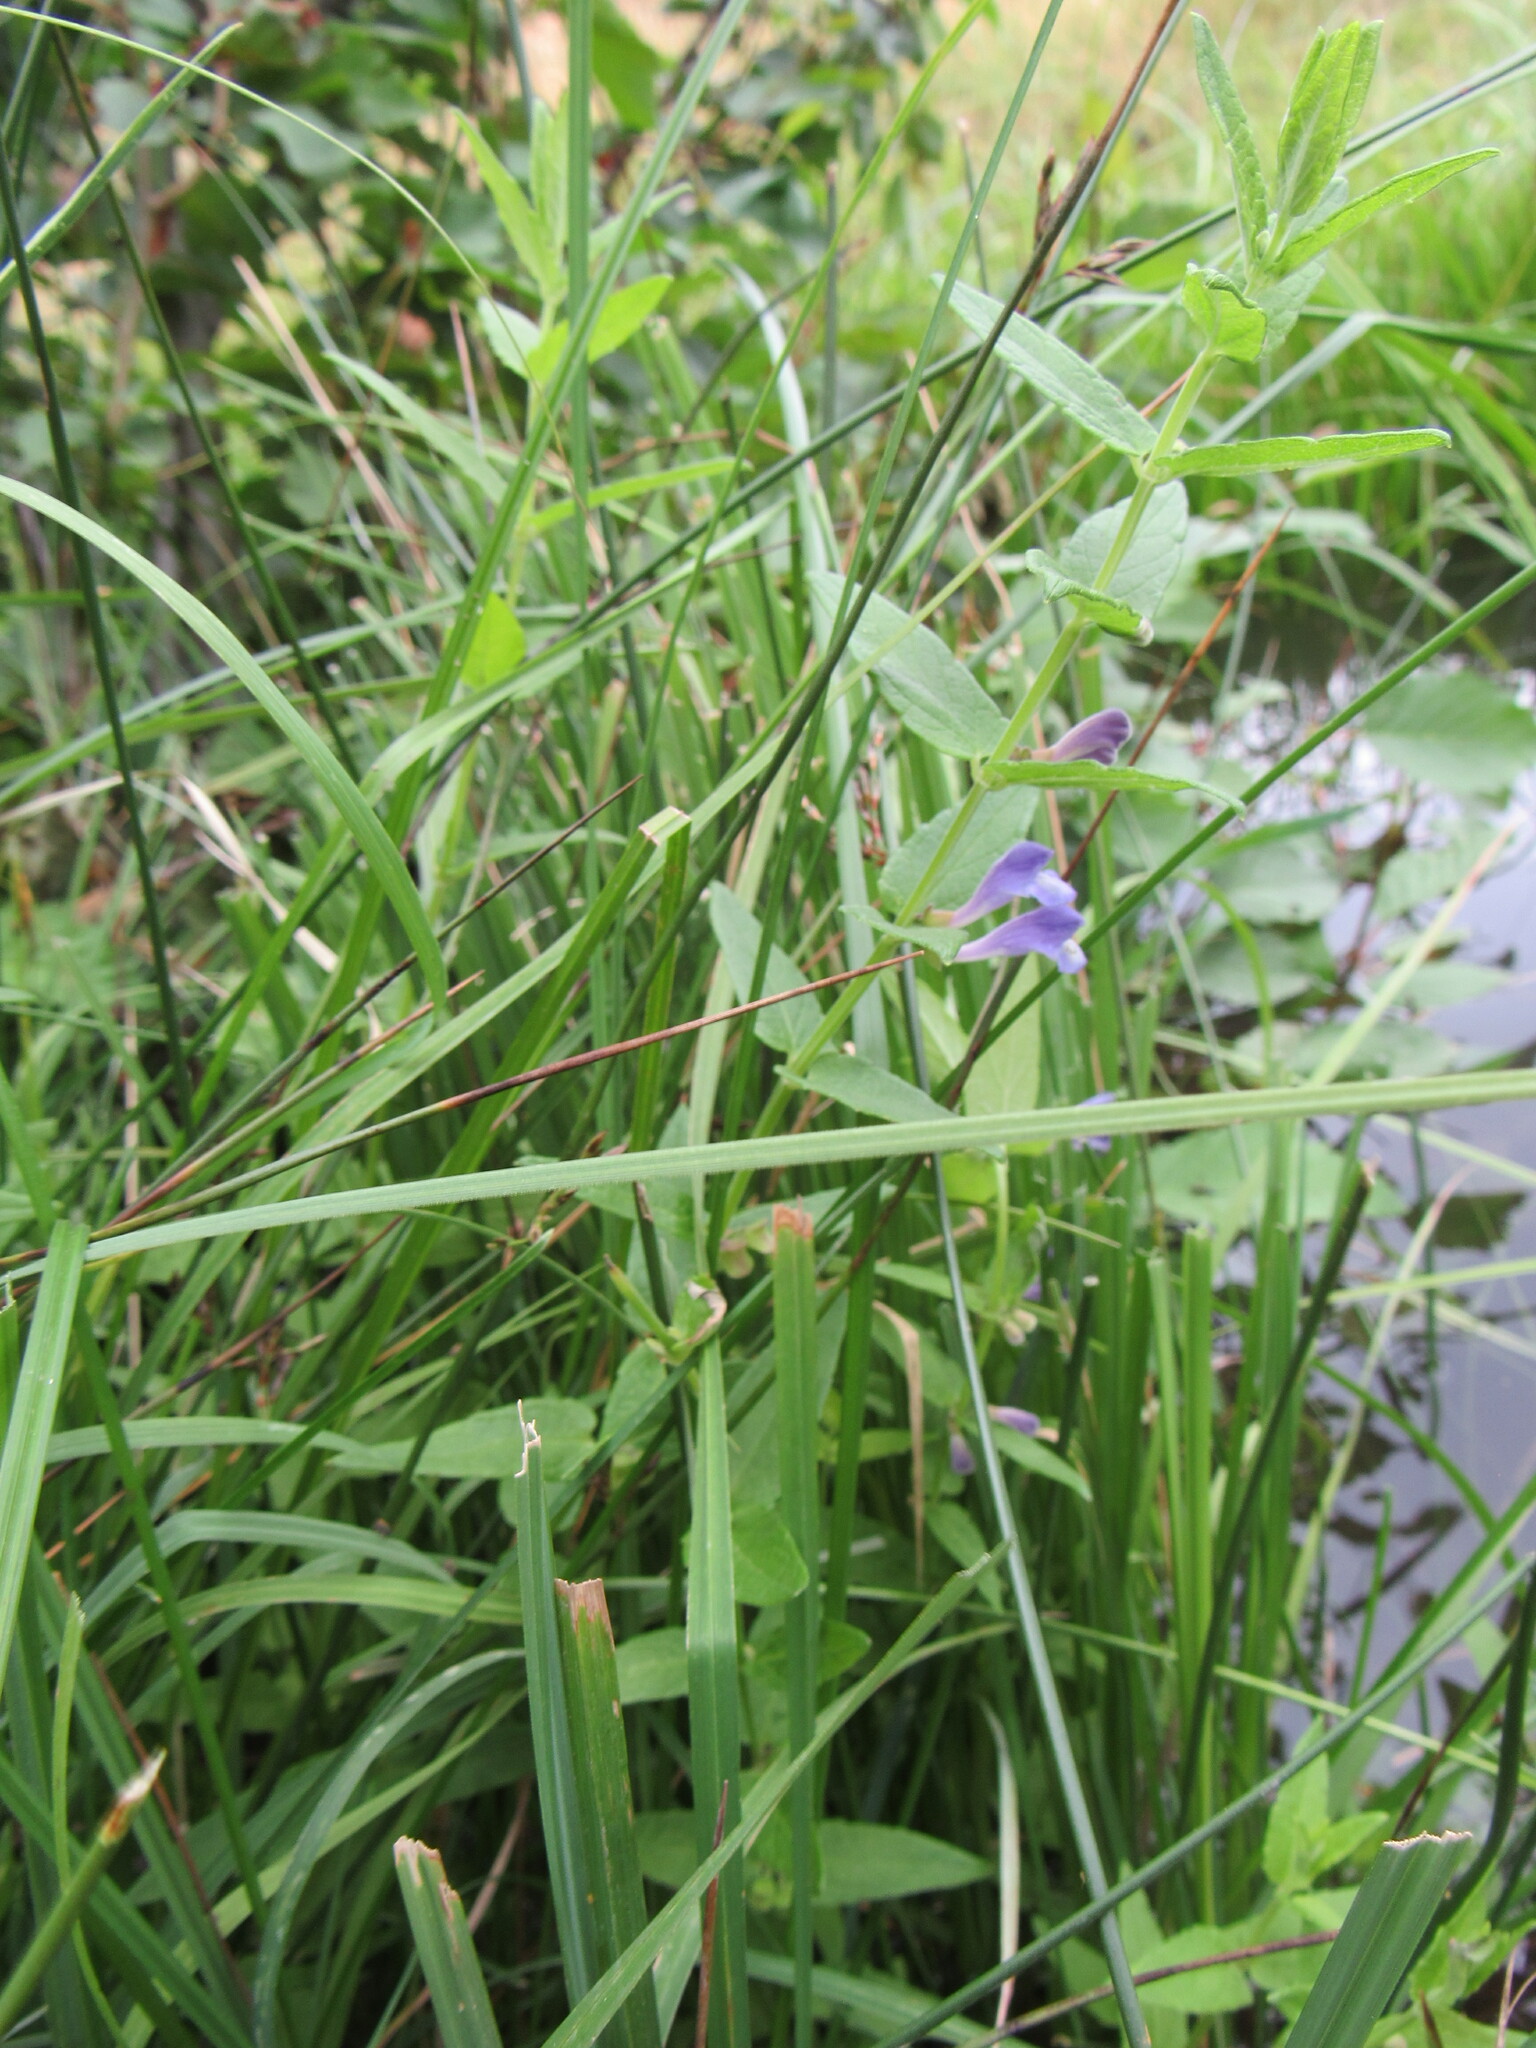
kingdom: Plantae
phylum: Tracheophyta
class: Magnoliopsida
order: Lamiales
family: Lamiaceae
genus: Scutellaria
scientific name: Scutellaria galericulata
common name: Skullcap
